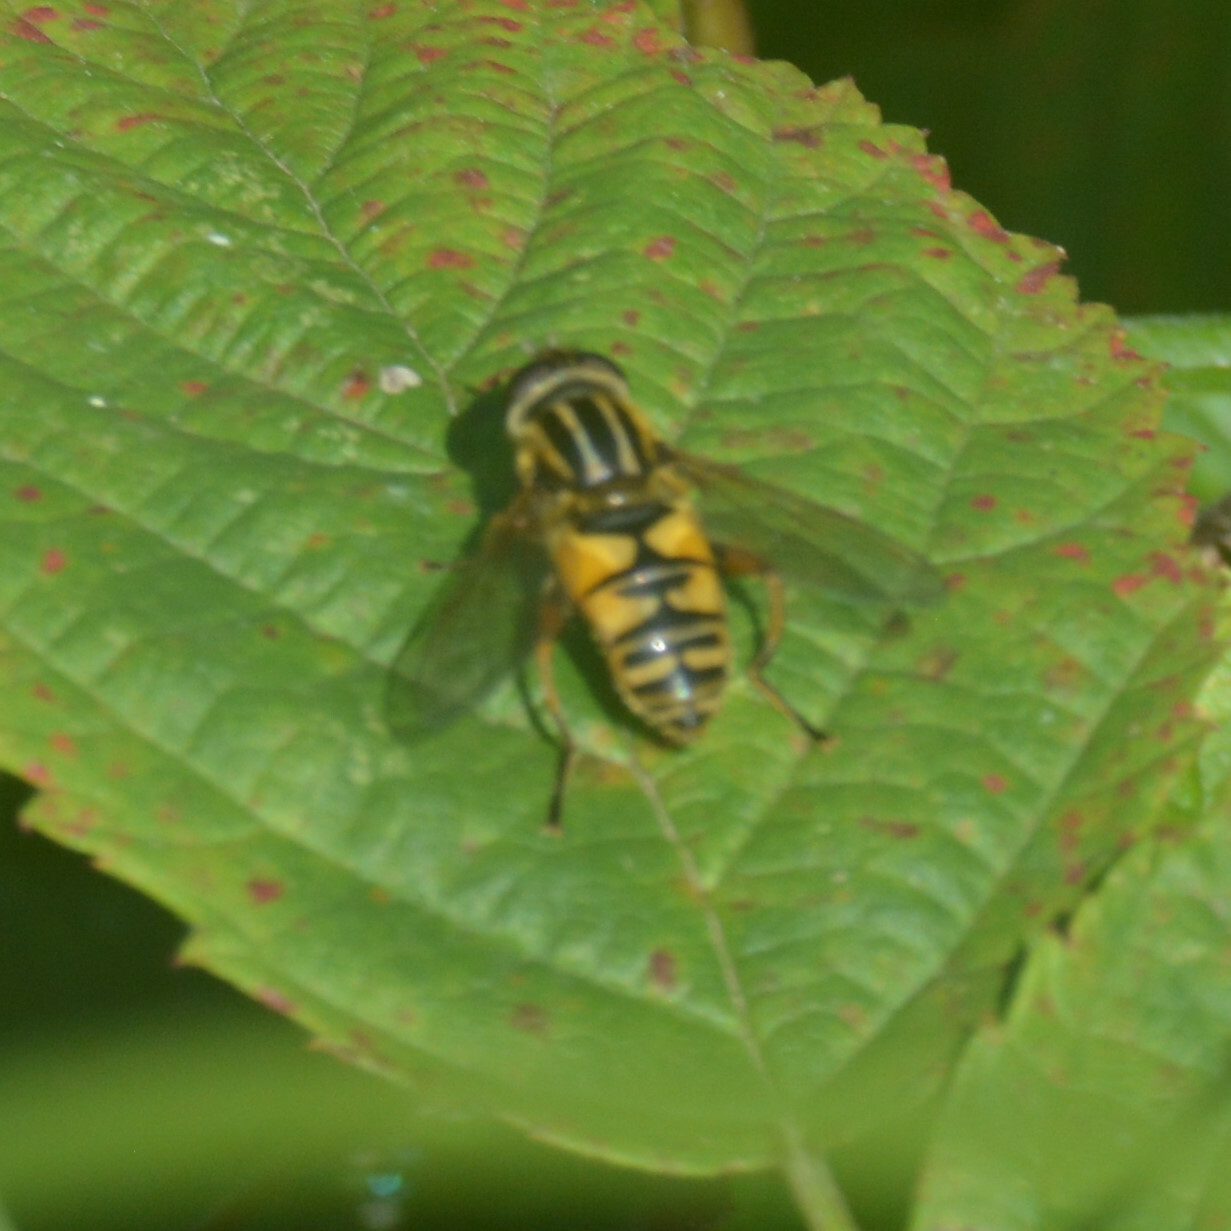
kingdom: Animalia
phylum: Arthropoda
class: Insecta
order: Diptera
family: Syrphidae
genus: Helophilus
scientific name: Helophilus pendulus
